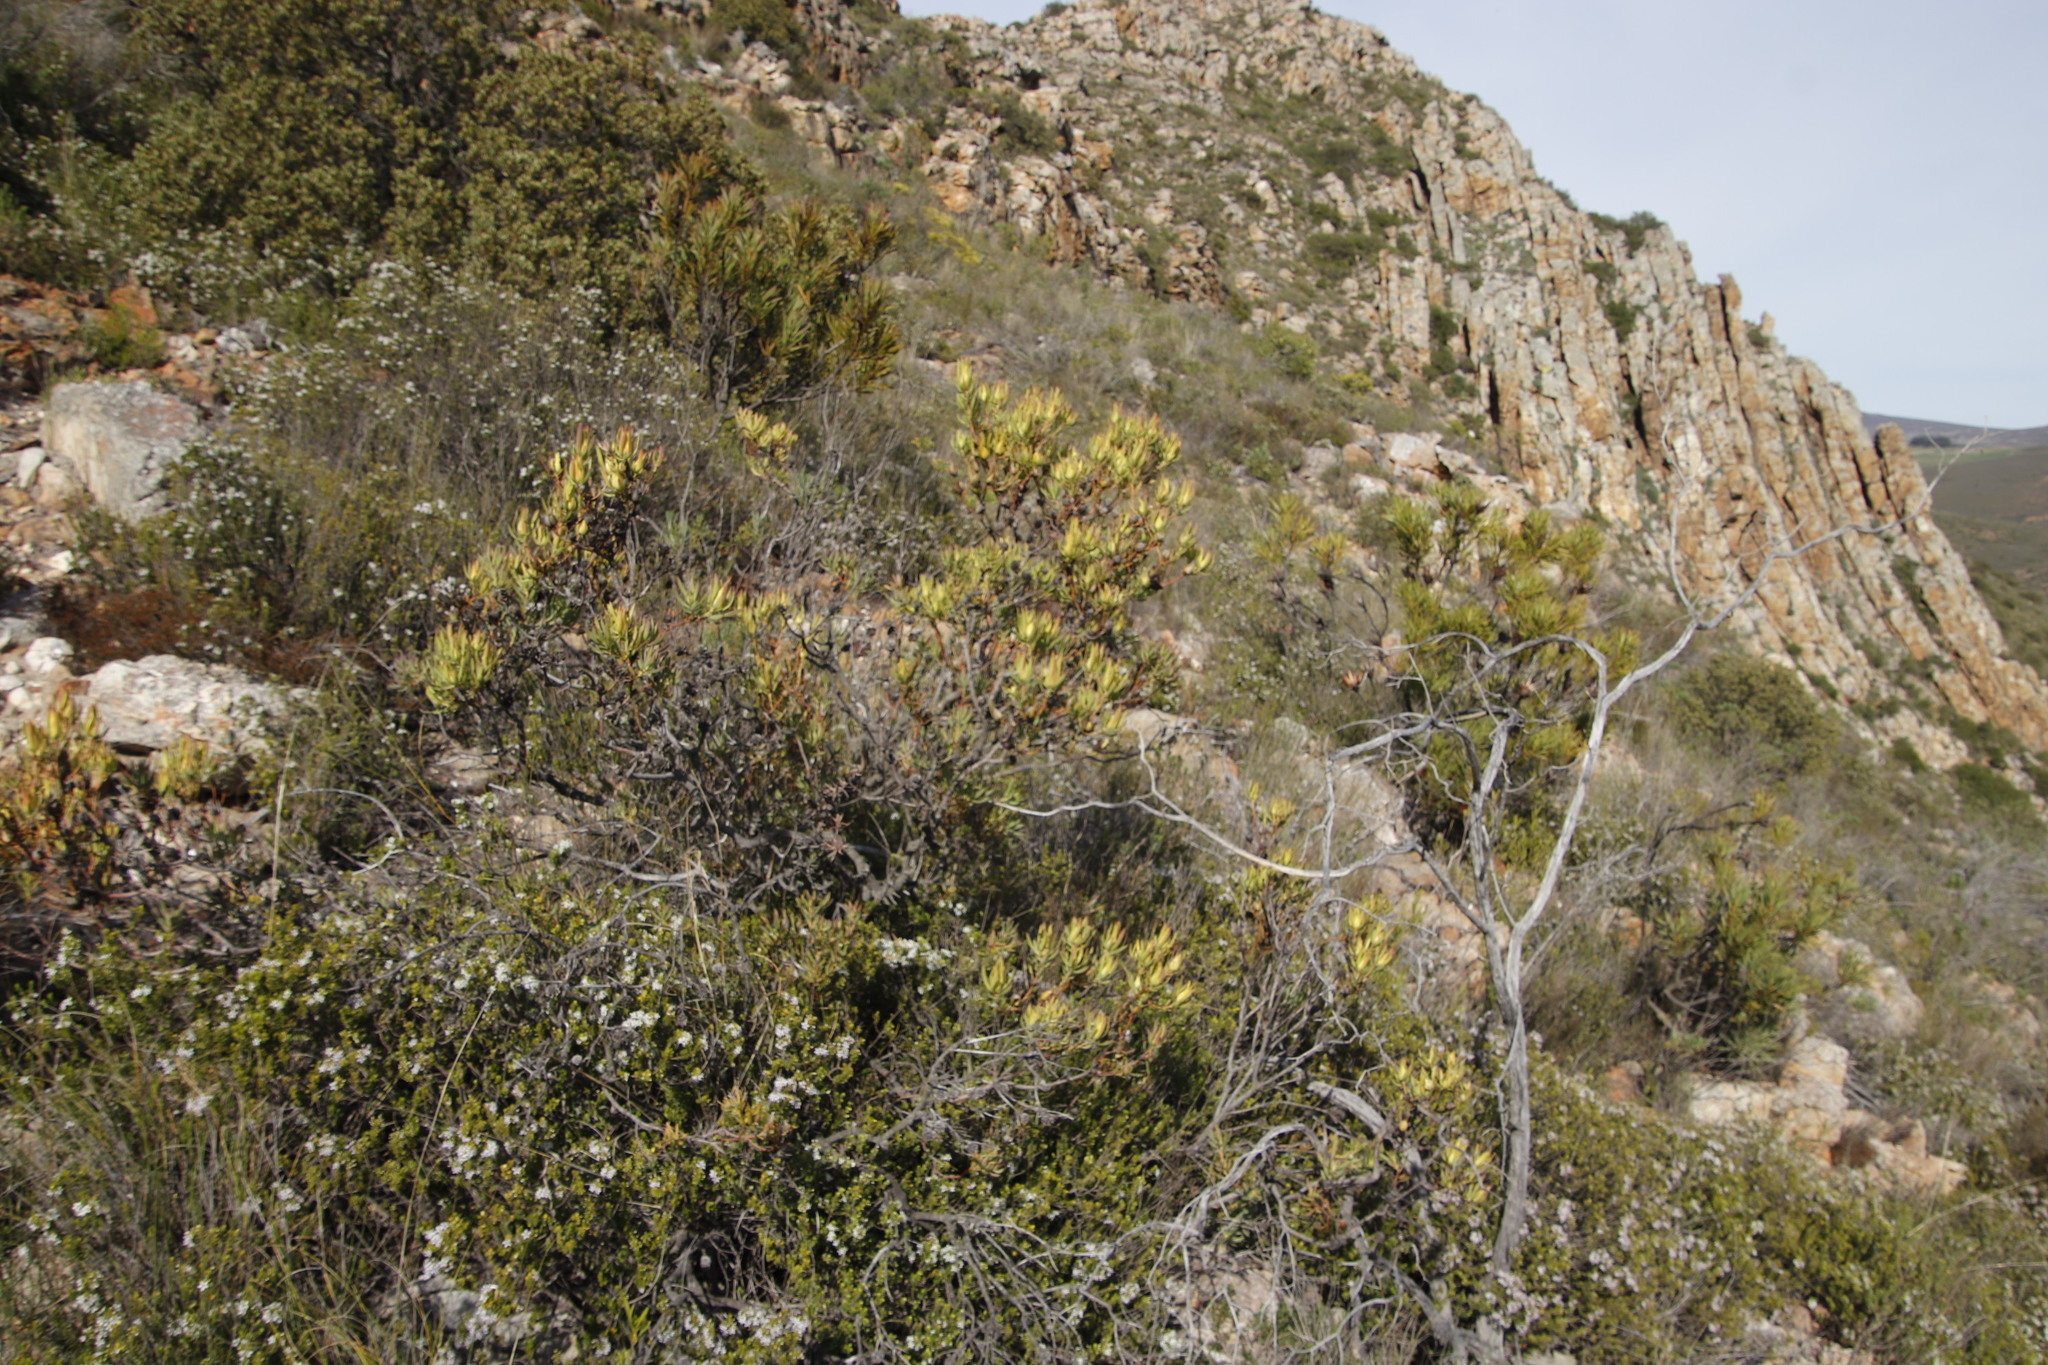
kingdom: Plantae
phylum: Tracheophyta
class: Magnoliopsida
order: Proteales
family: Proteaceae
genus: Leucadendron
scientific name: Leucadendron salignum
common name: Common sunshine conebush
